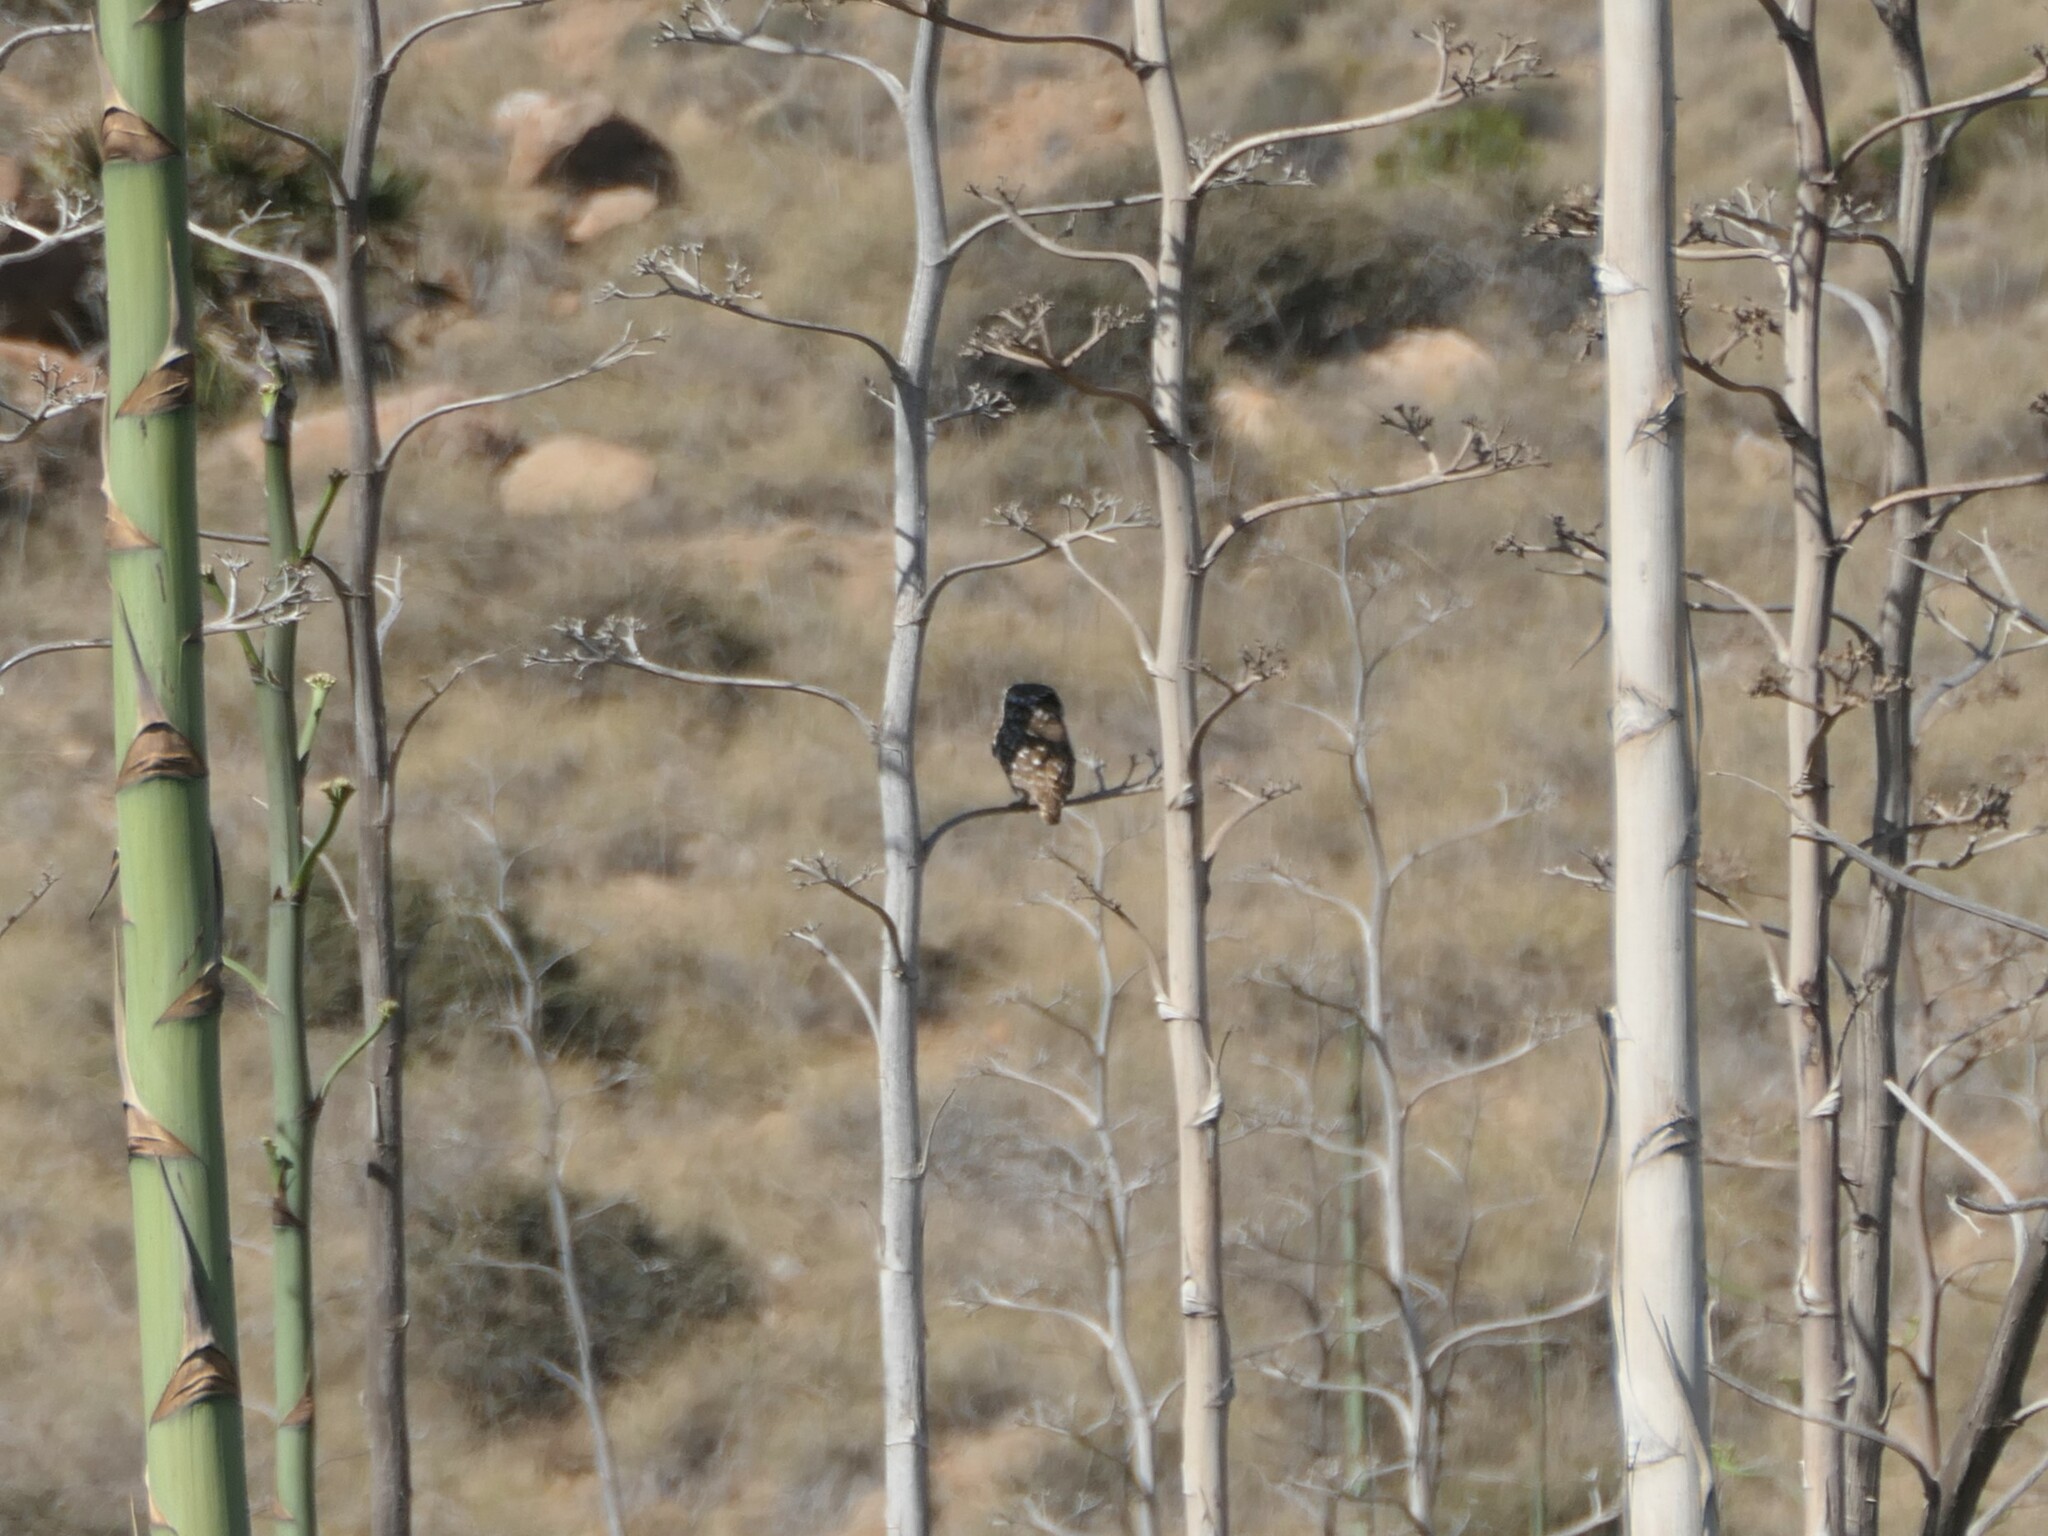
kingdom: Animalia
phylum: Chordata
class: Aves
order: Strigiformes
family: Strigidae
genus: Athene
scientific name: Athene noctua
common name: Little owl
